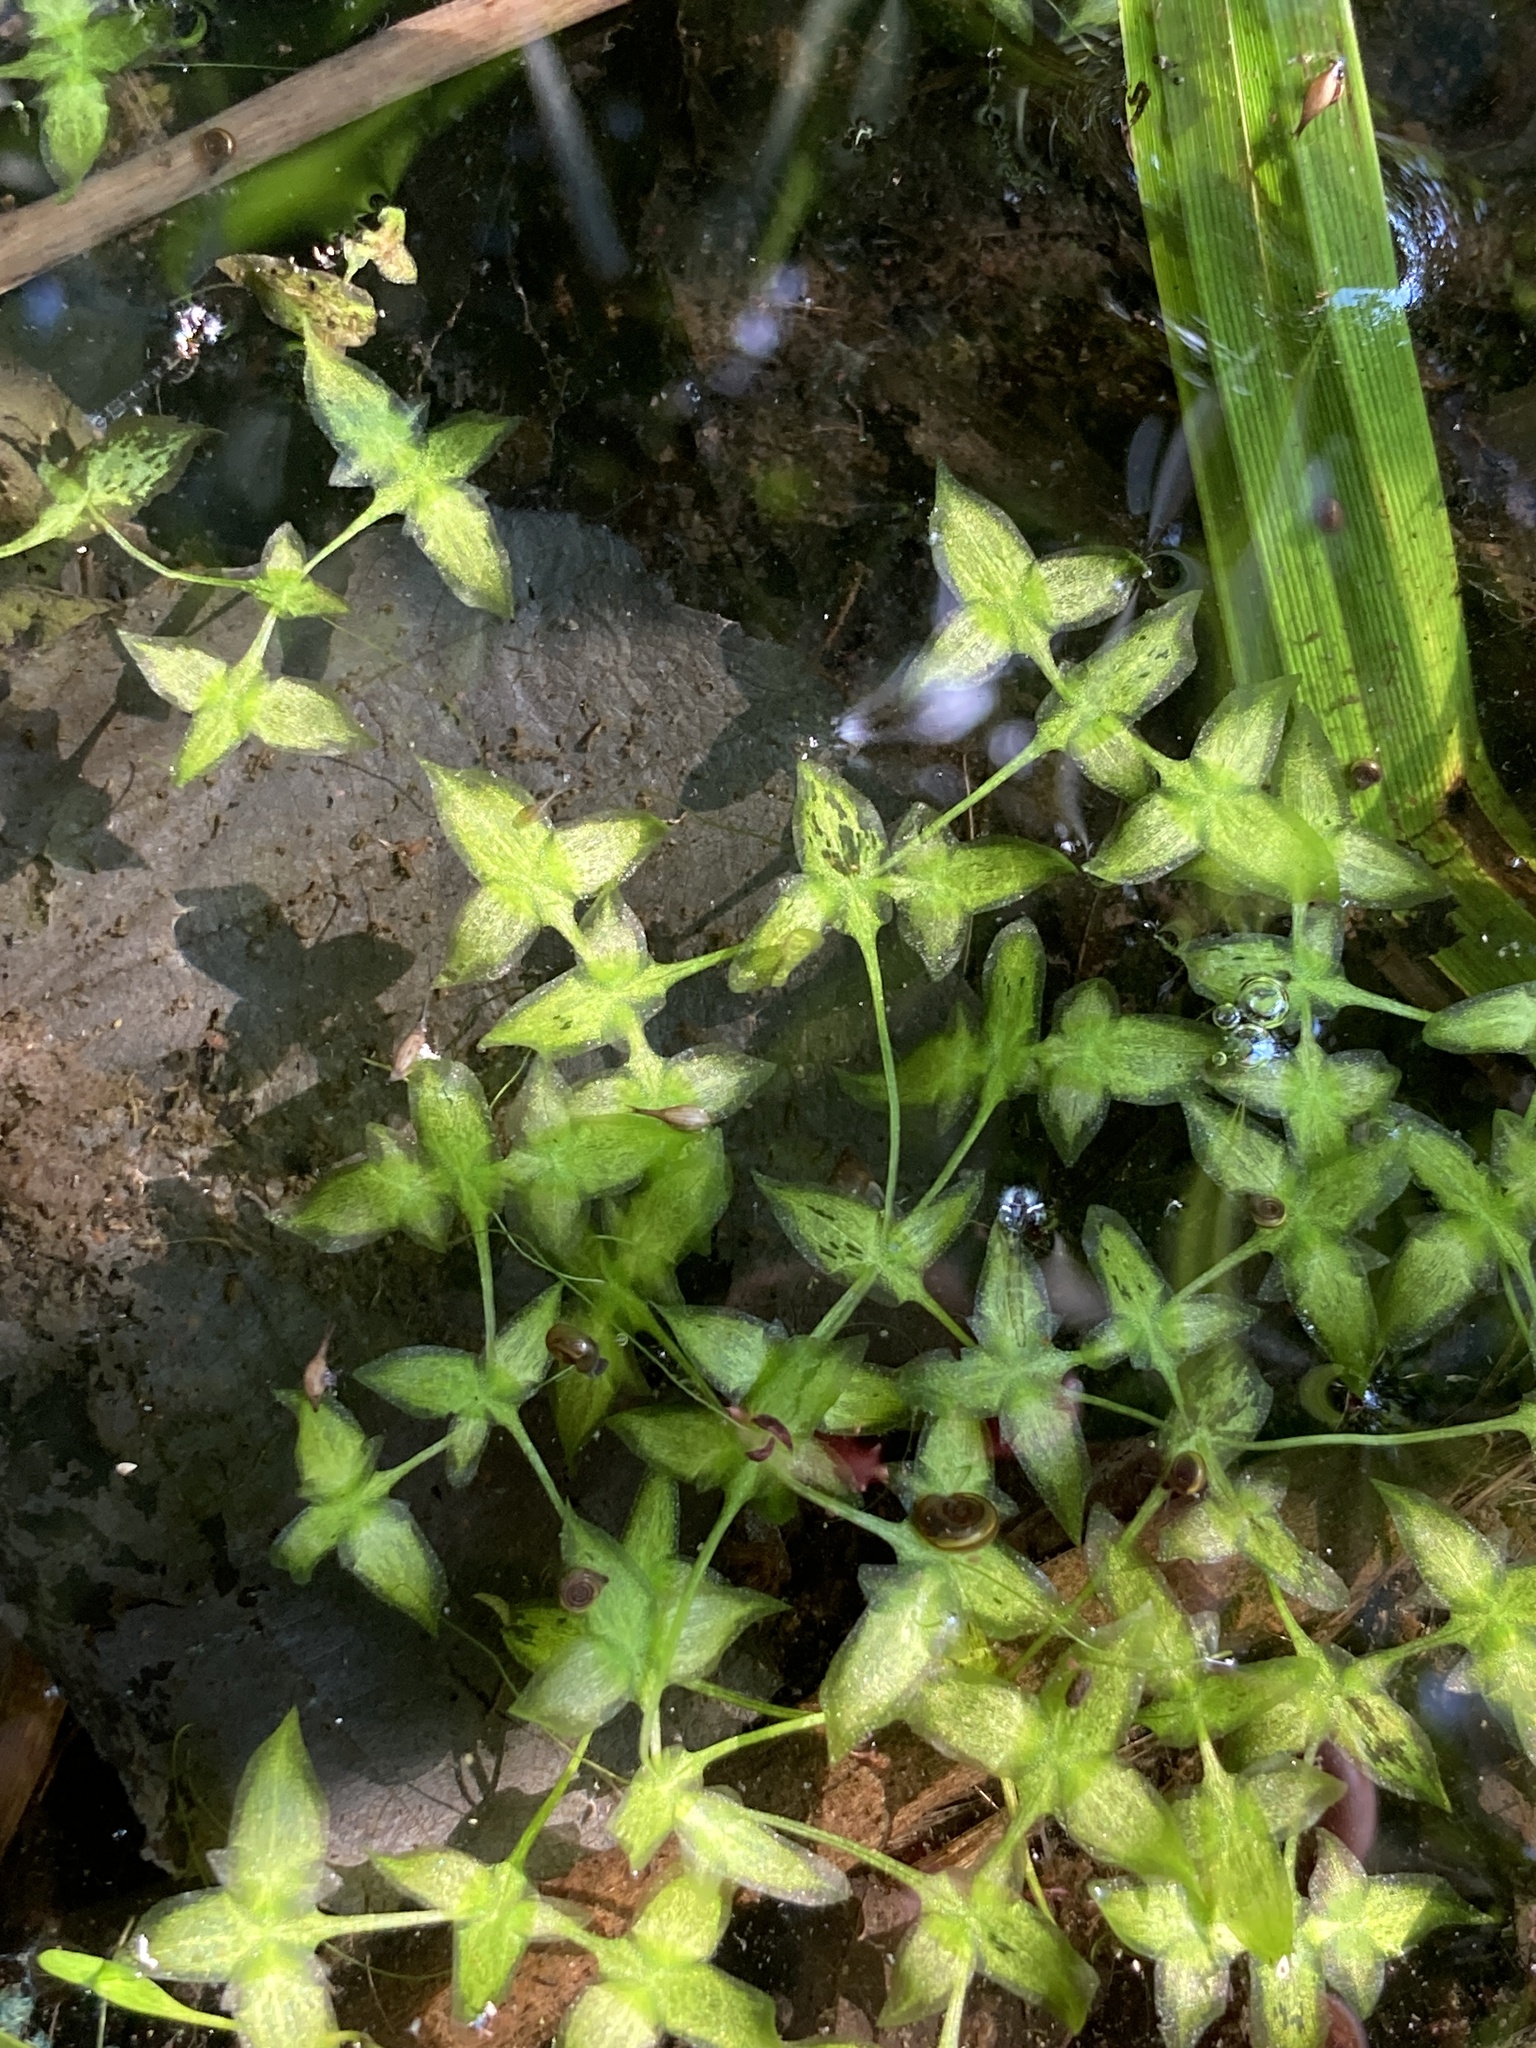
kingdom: Plantae
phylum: Tracheophyta
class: Liliopsida
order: Alismatales
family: Araceae
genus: Lemna
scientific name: Lemna trisulca
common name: Ivy-leaved duckweed
